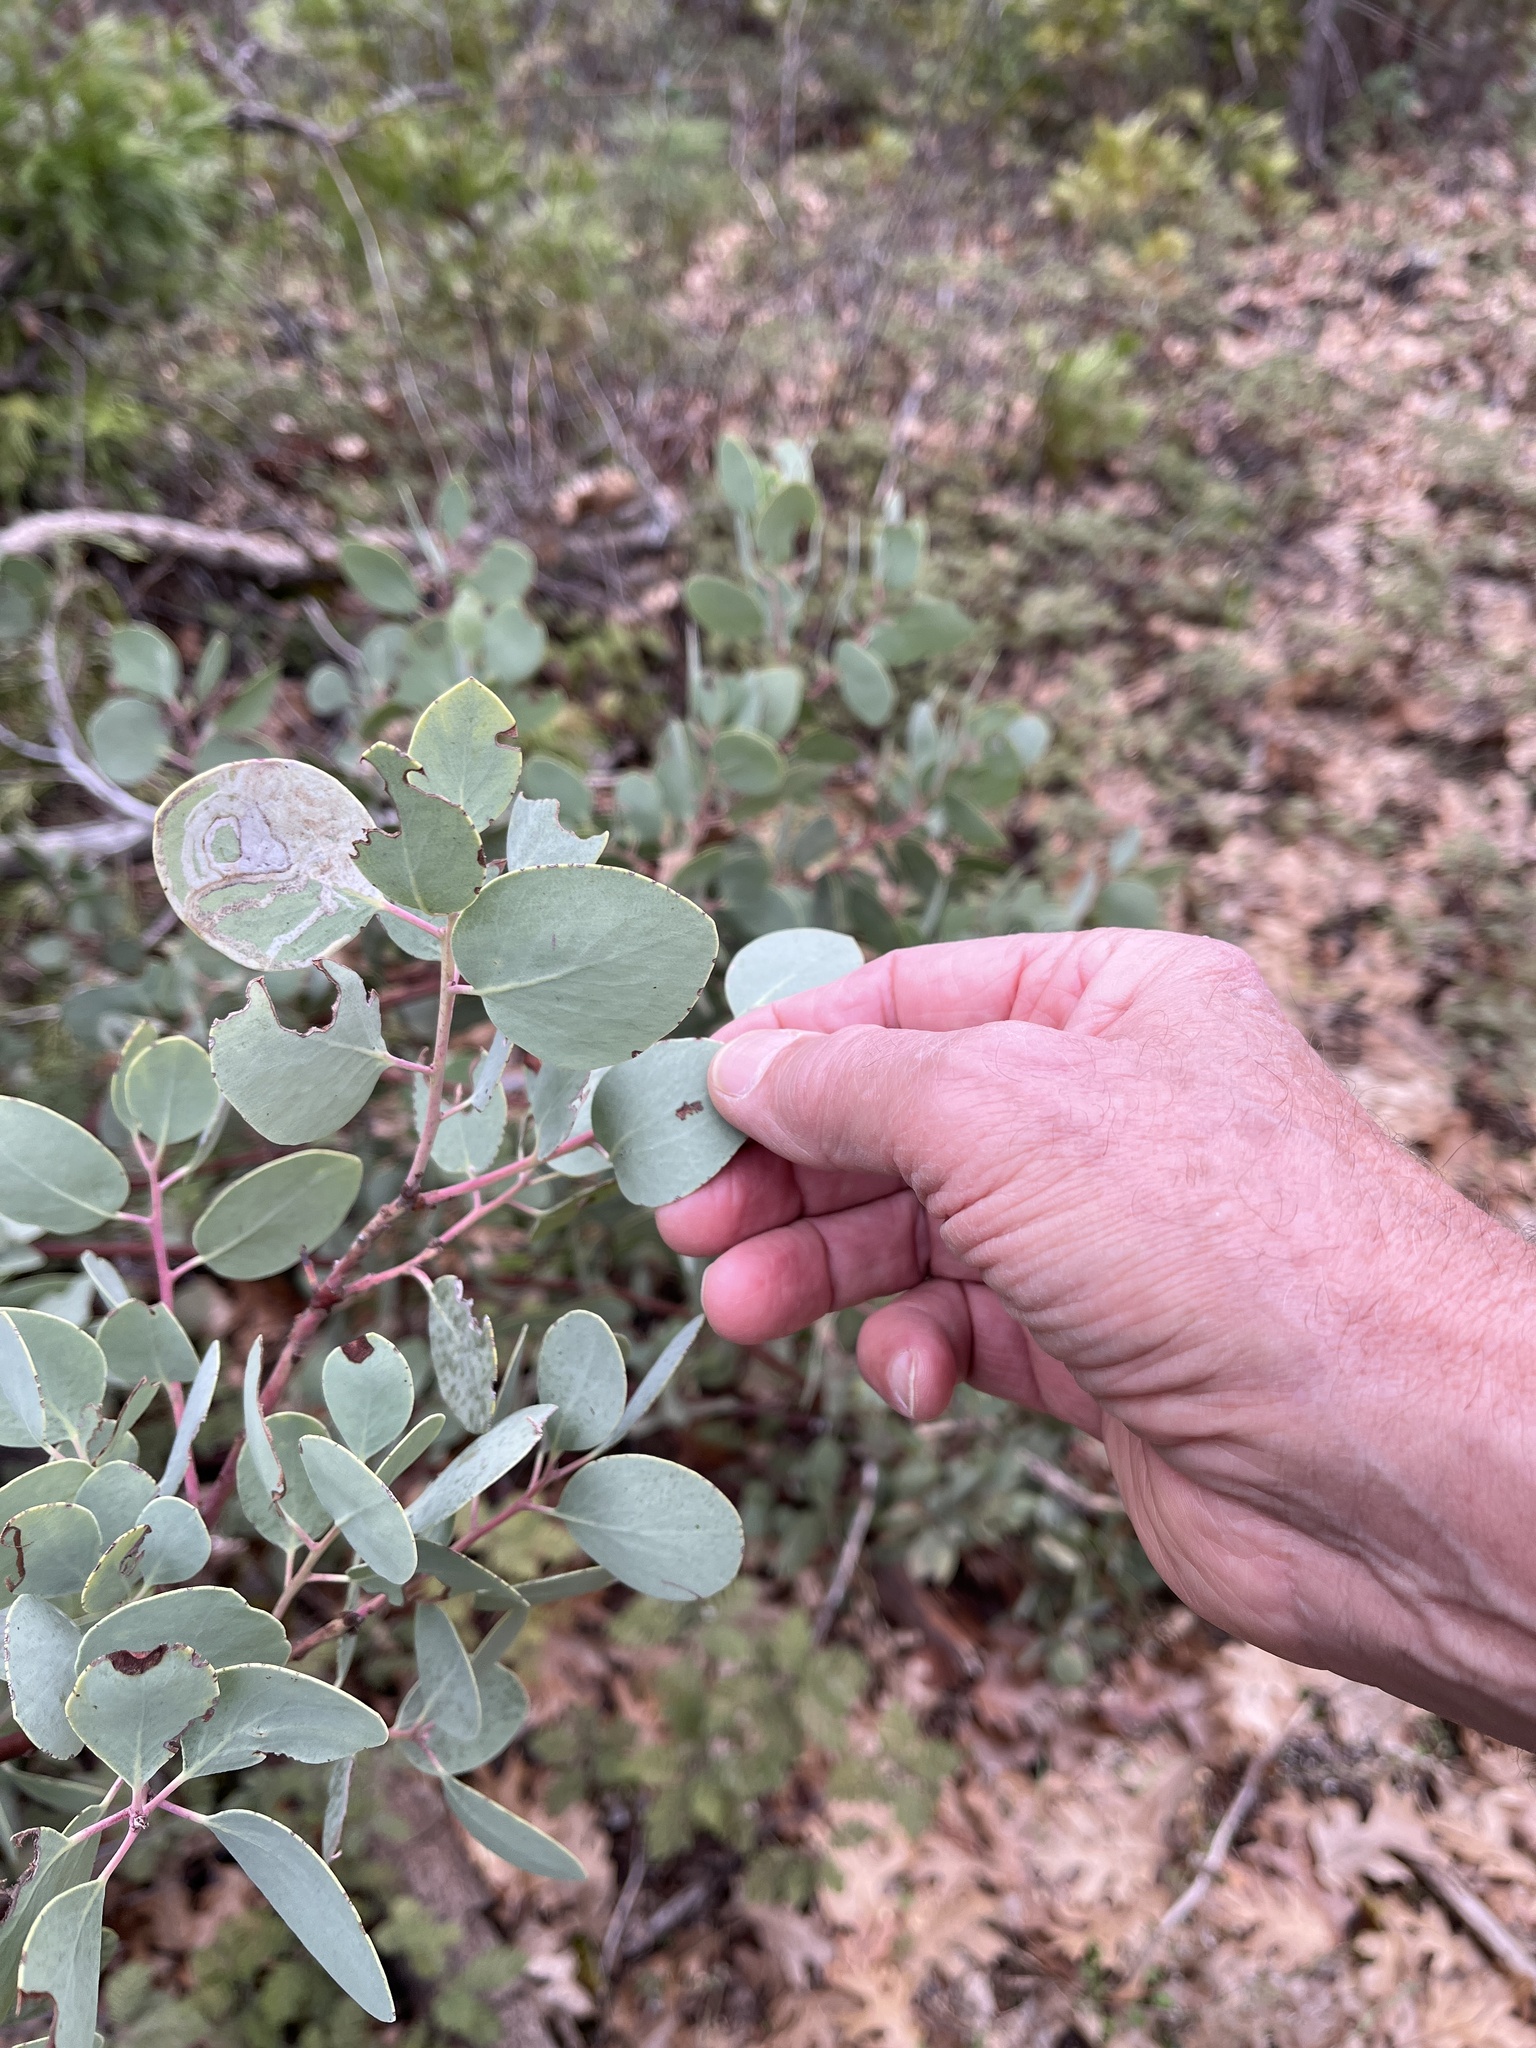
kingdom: Plantae
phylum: Tracheophyta
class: Magnoliopsida
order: Ericales
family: Ericaceae
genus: Arctostaphylos
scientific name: Arctostaphylos mewukka
